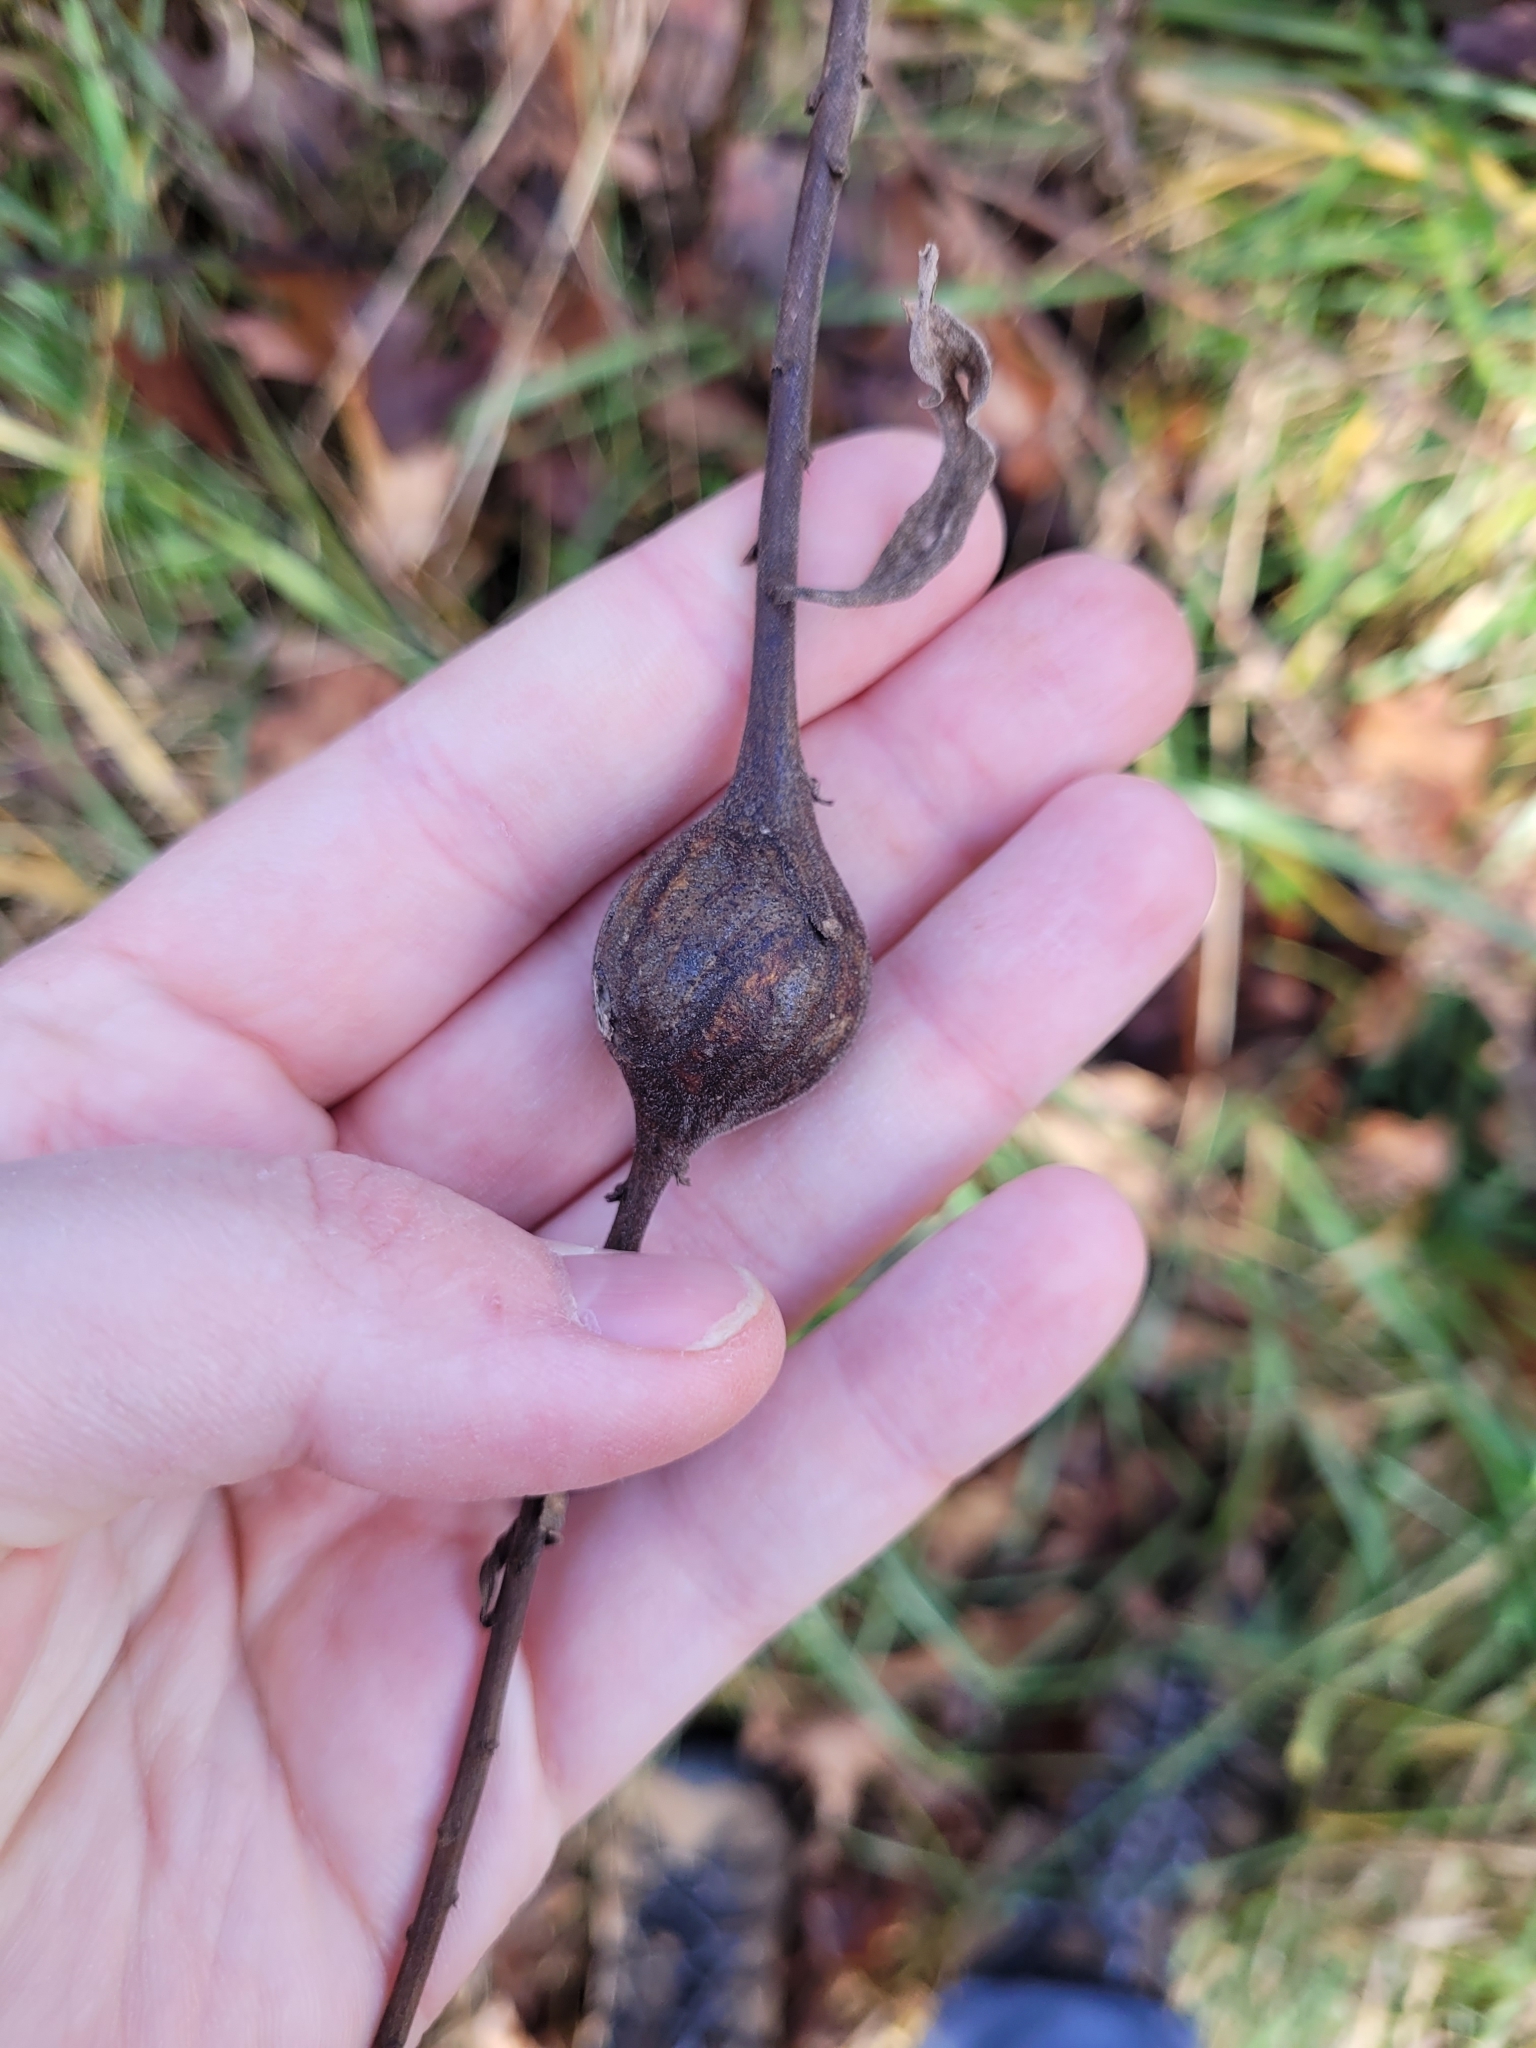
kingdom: Animalia
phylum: Arthropoda
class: Insecta
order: Diptera
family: Tephritidae
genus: Eurosta
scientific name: Eurosta solidaginis
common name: Goldenrod gall fly
